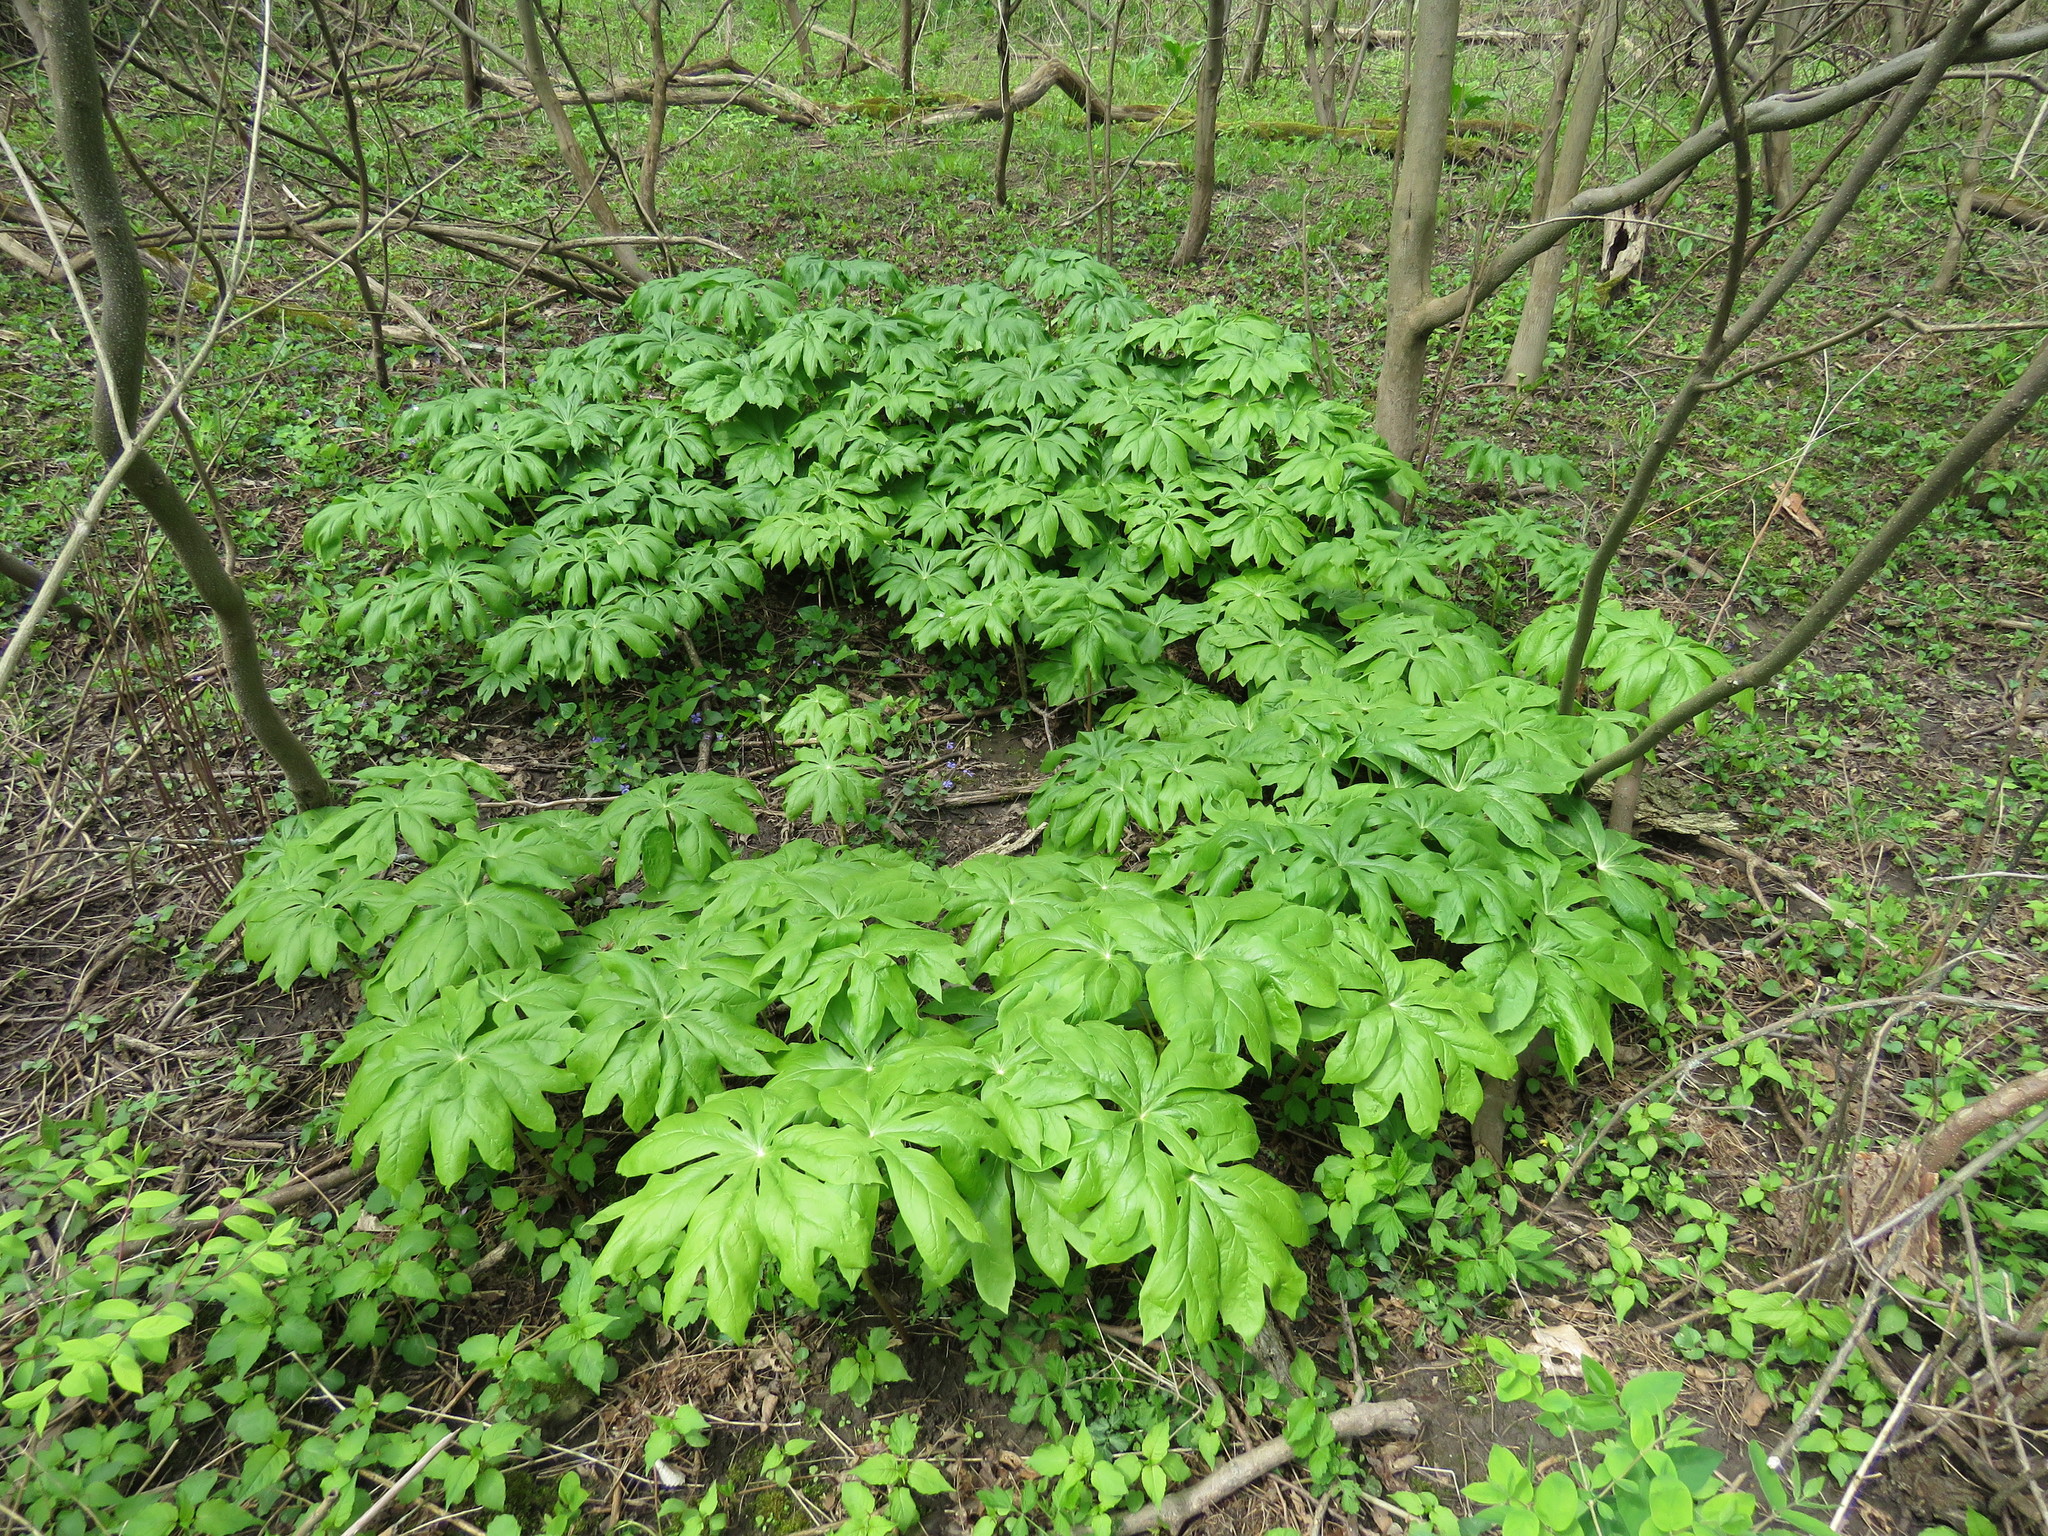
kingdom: Plantae
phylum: Tracheophyta
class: Magnoliopsida
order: Ranunculales
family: Berberidaceae
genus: Podophyllum
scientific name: Podophyllum peltatum
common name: Wild mandrake
